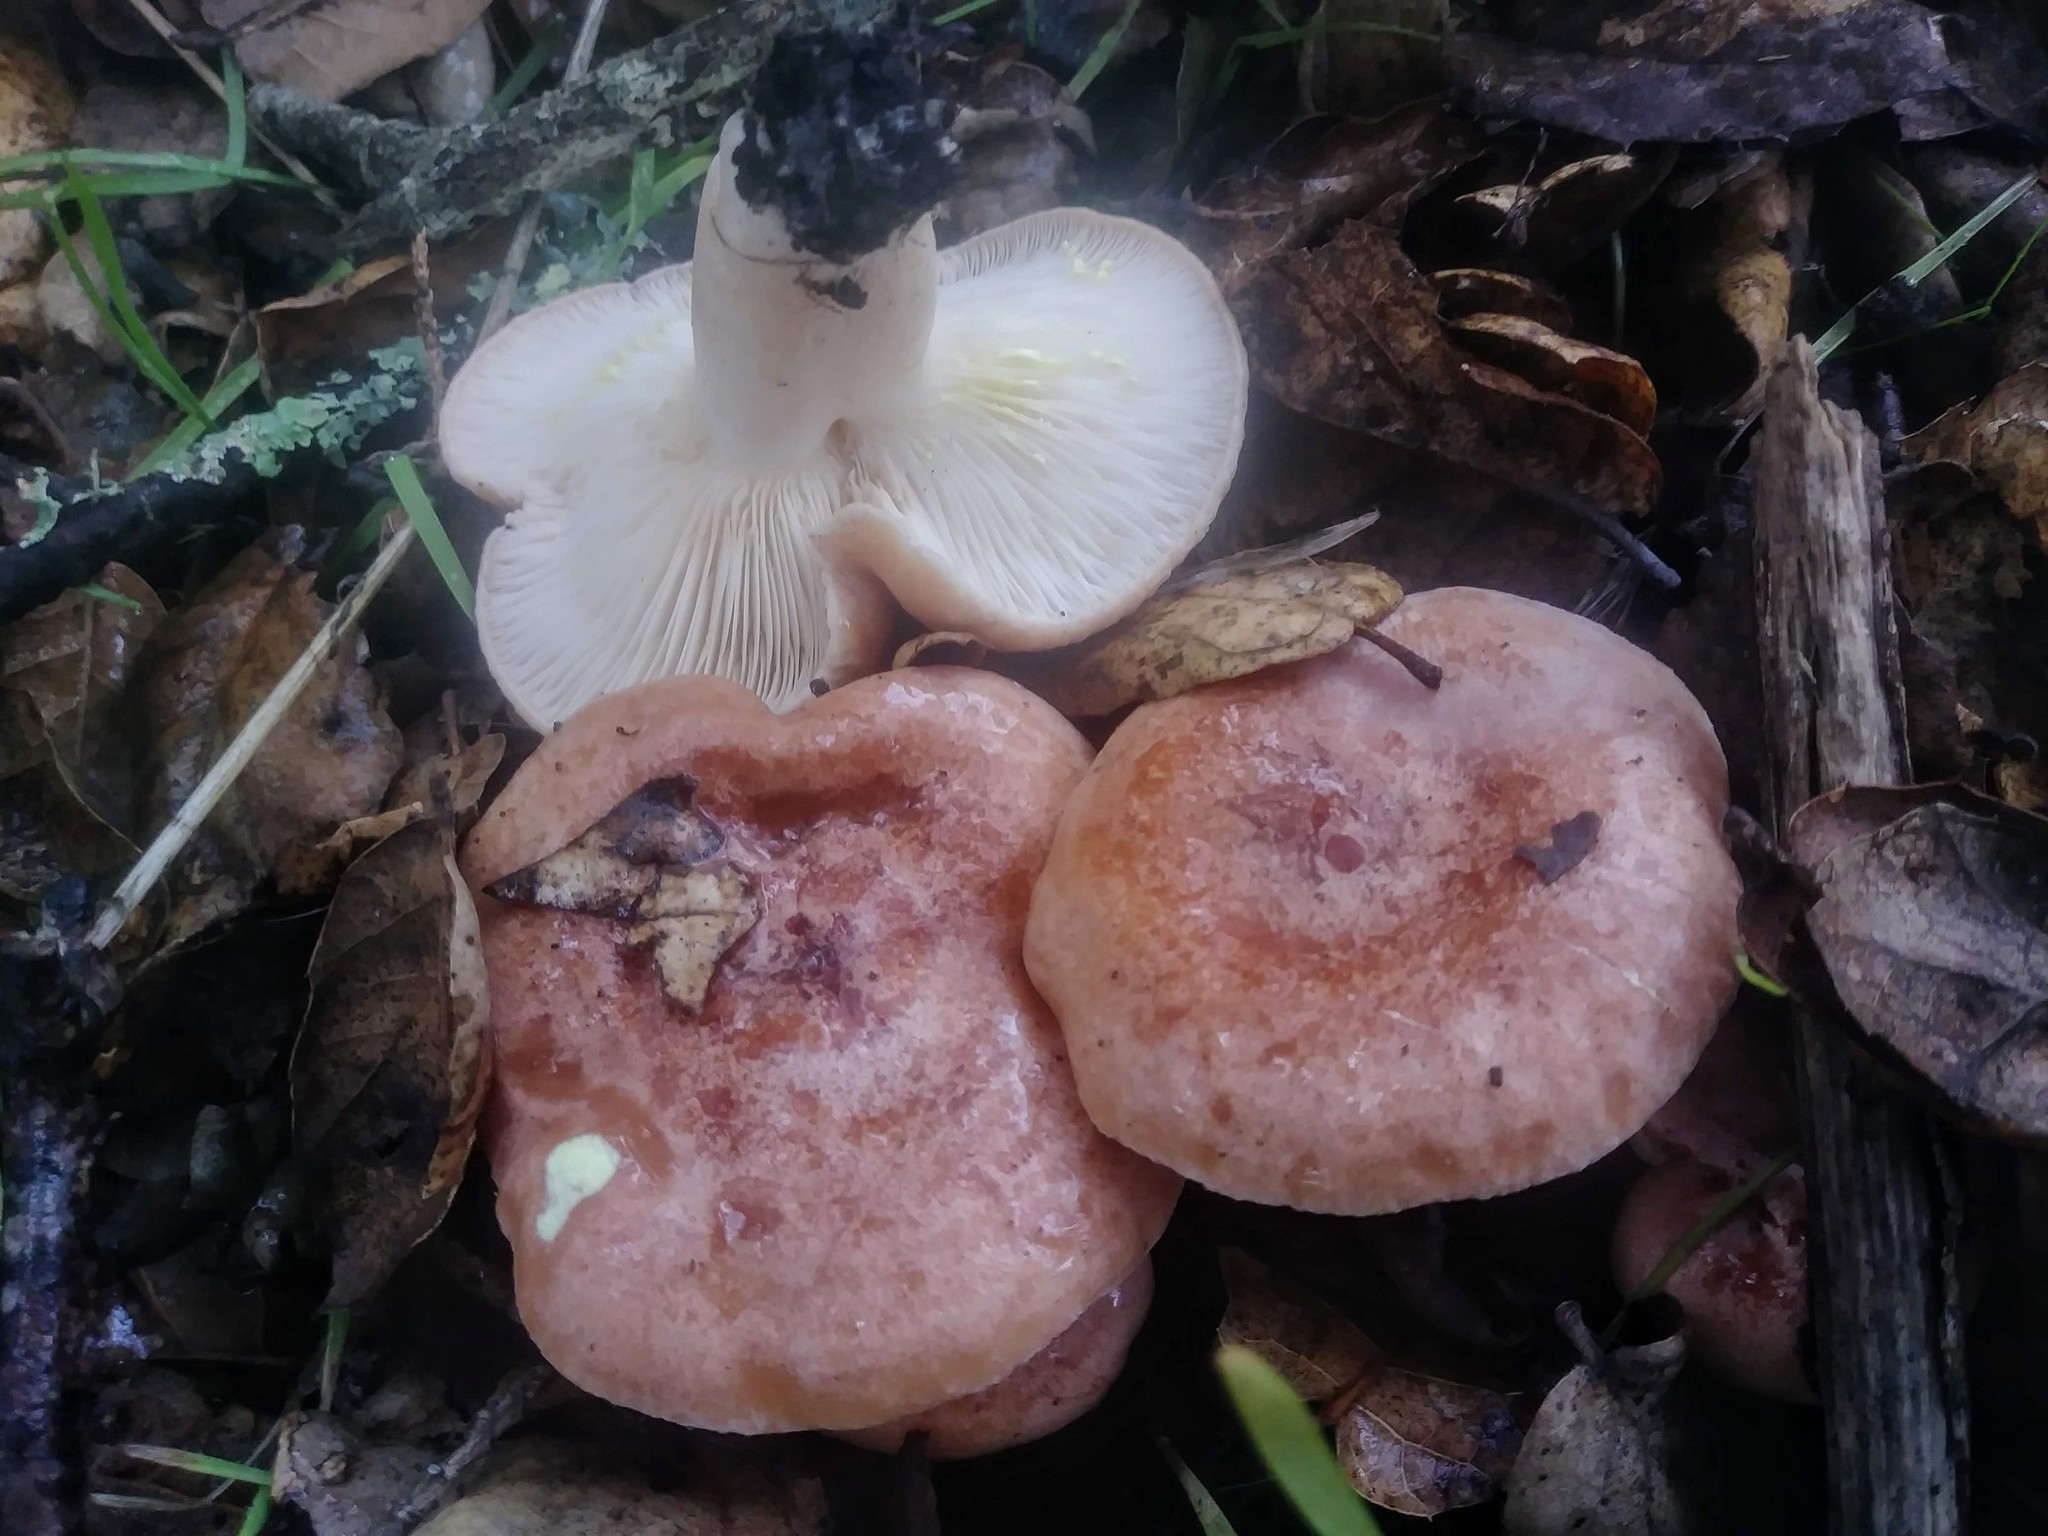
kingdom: Fungi
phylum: Basidiomycota
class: Agaricomycetes
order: Russulales
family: Russulaceae
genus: Lactarius
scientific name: Lactarius xanthogalactus
